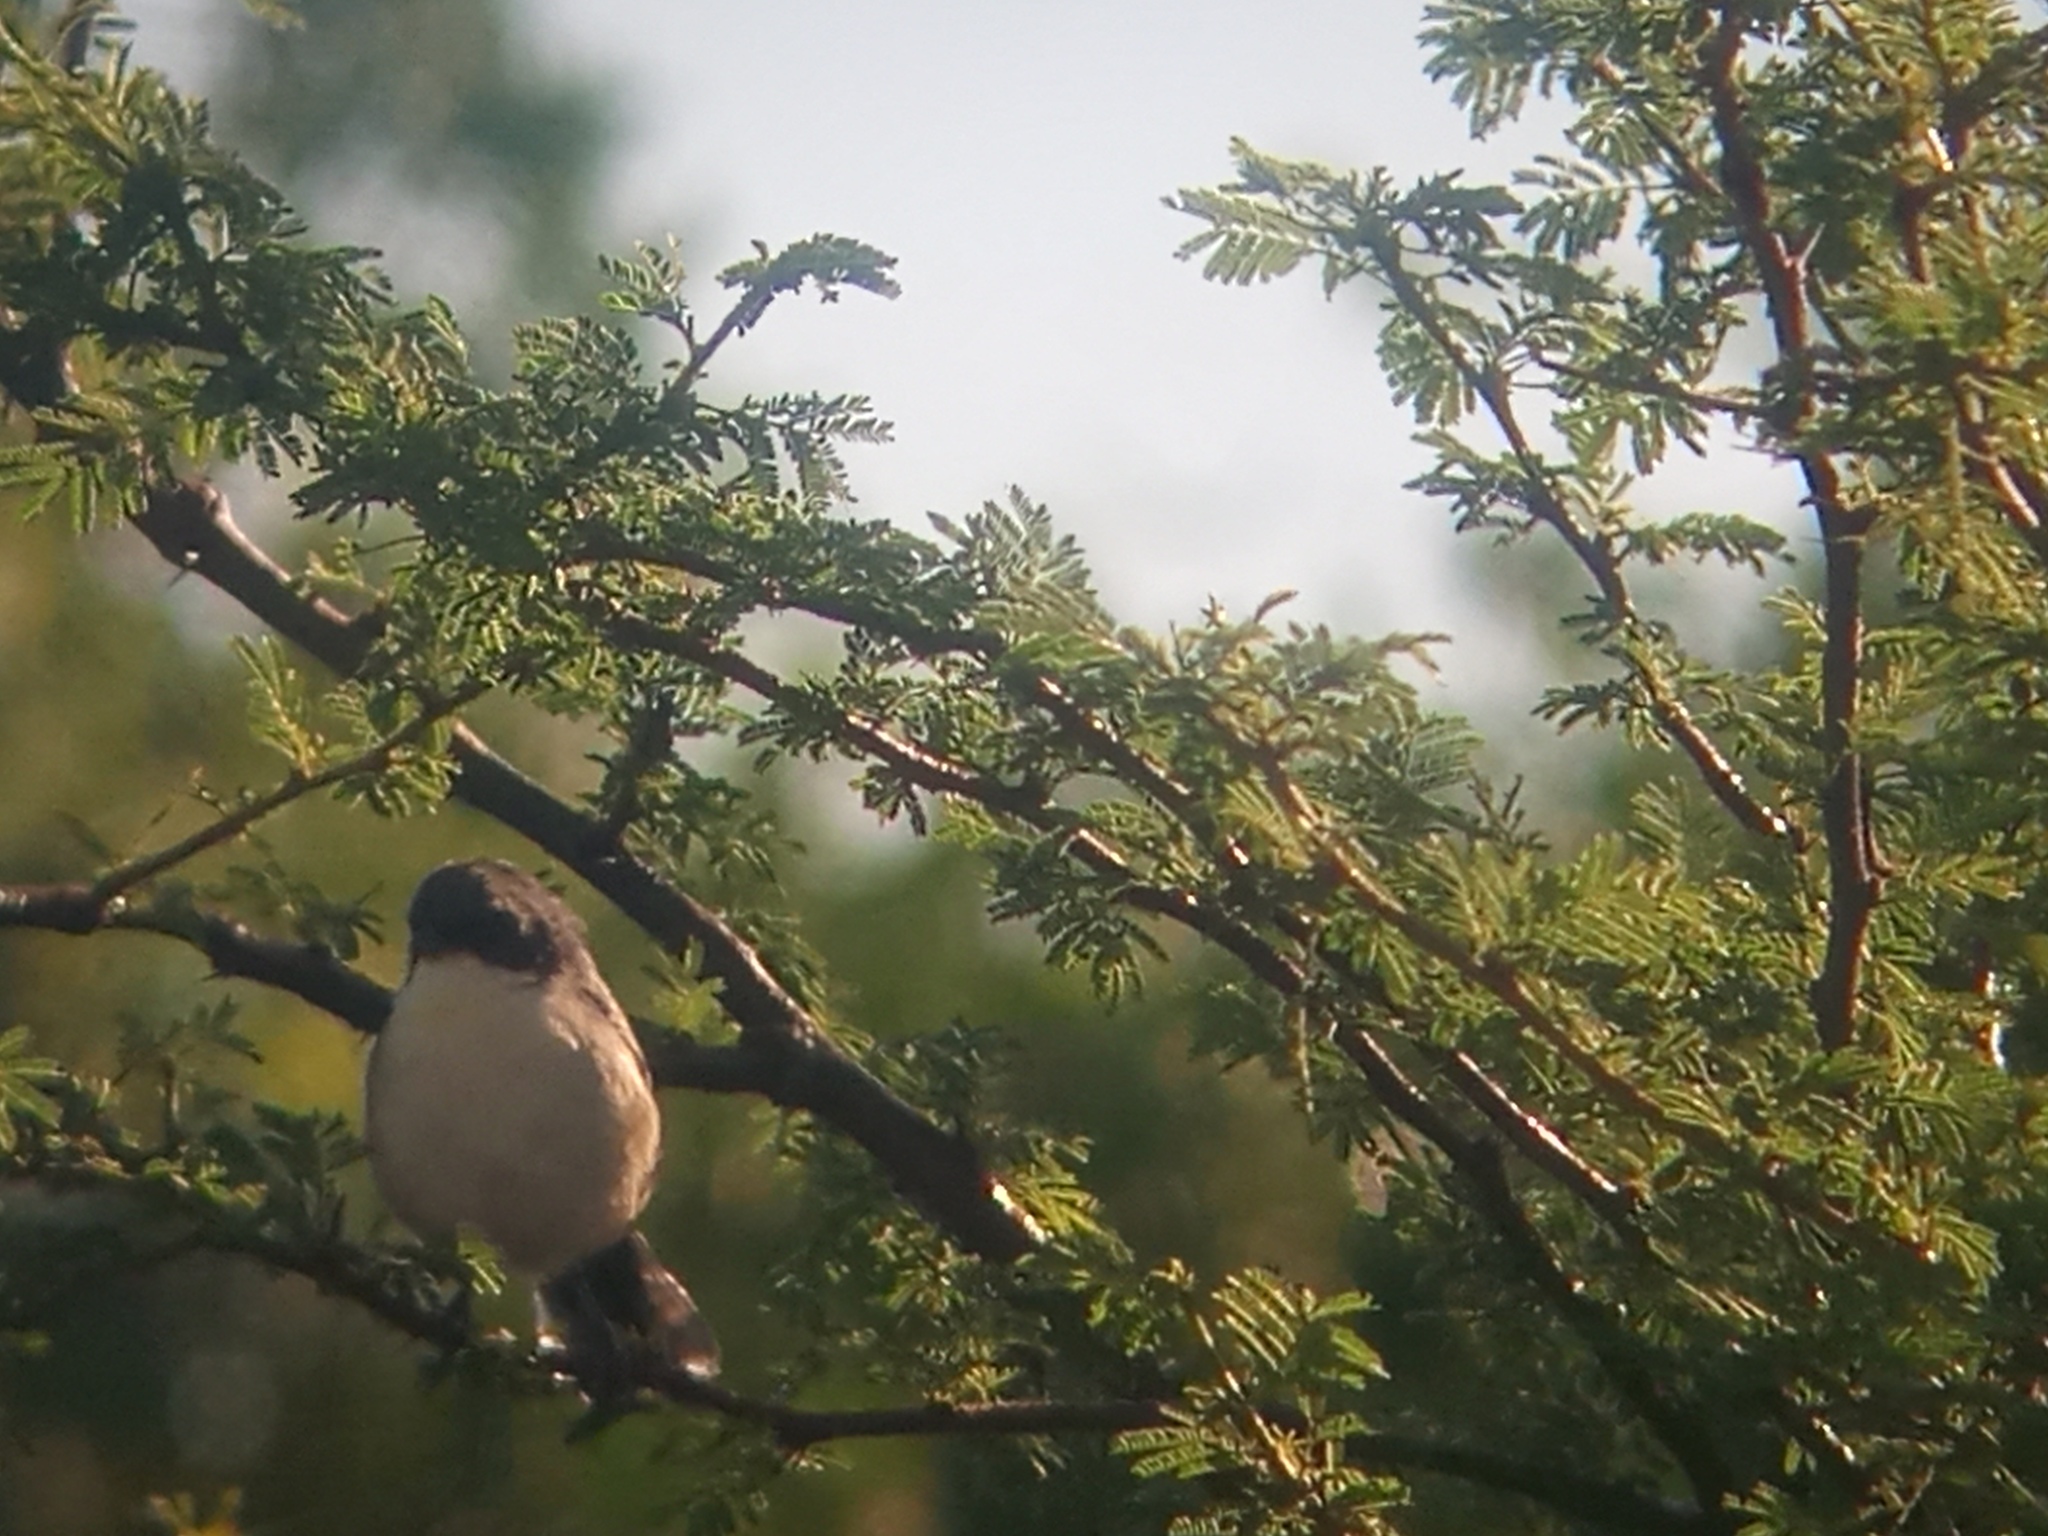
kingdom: Animalia
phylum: Chordata
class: Aves
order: Passeriformes
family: Thraupidae
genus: Microspingus
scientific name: Microspingus melanoleucus
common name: Black-capped warbling-finch
